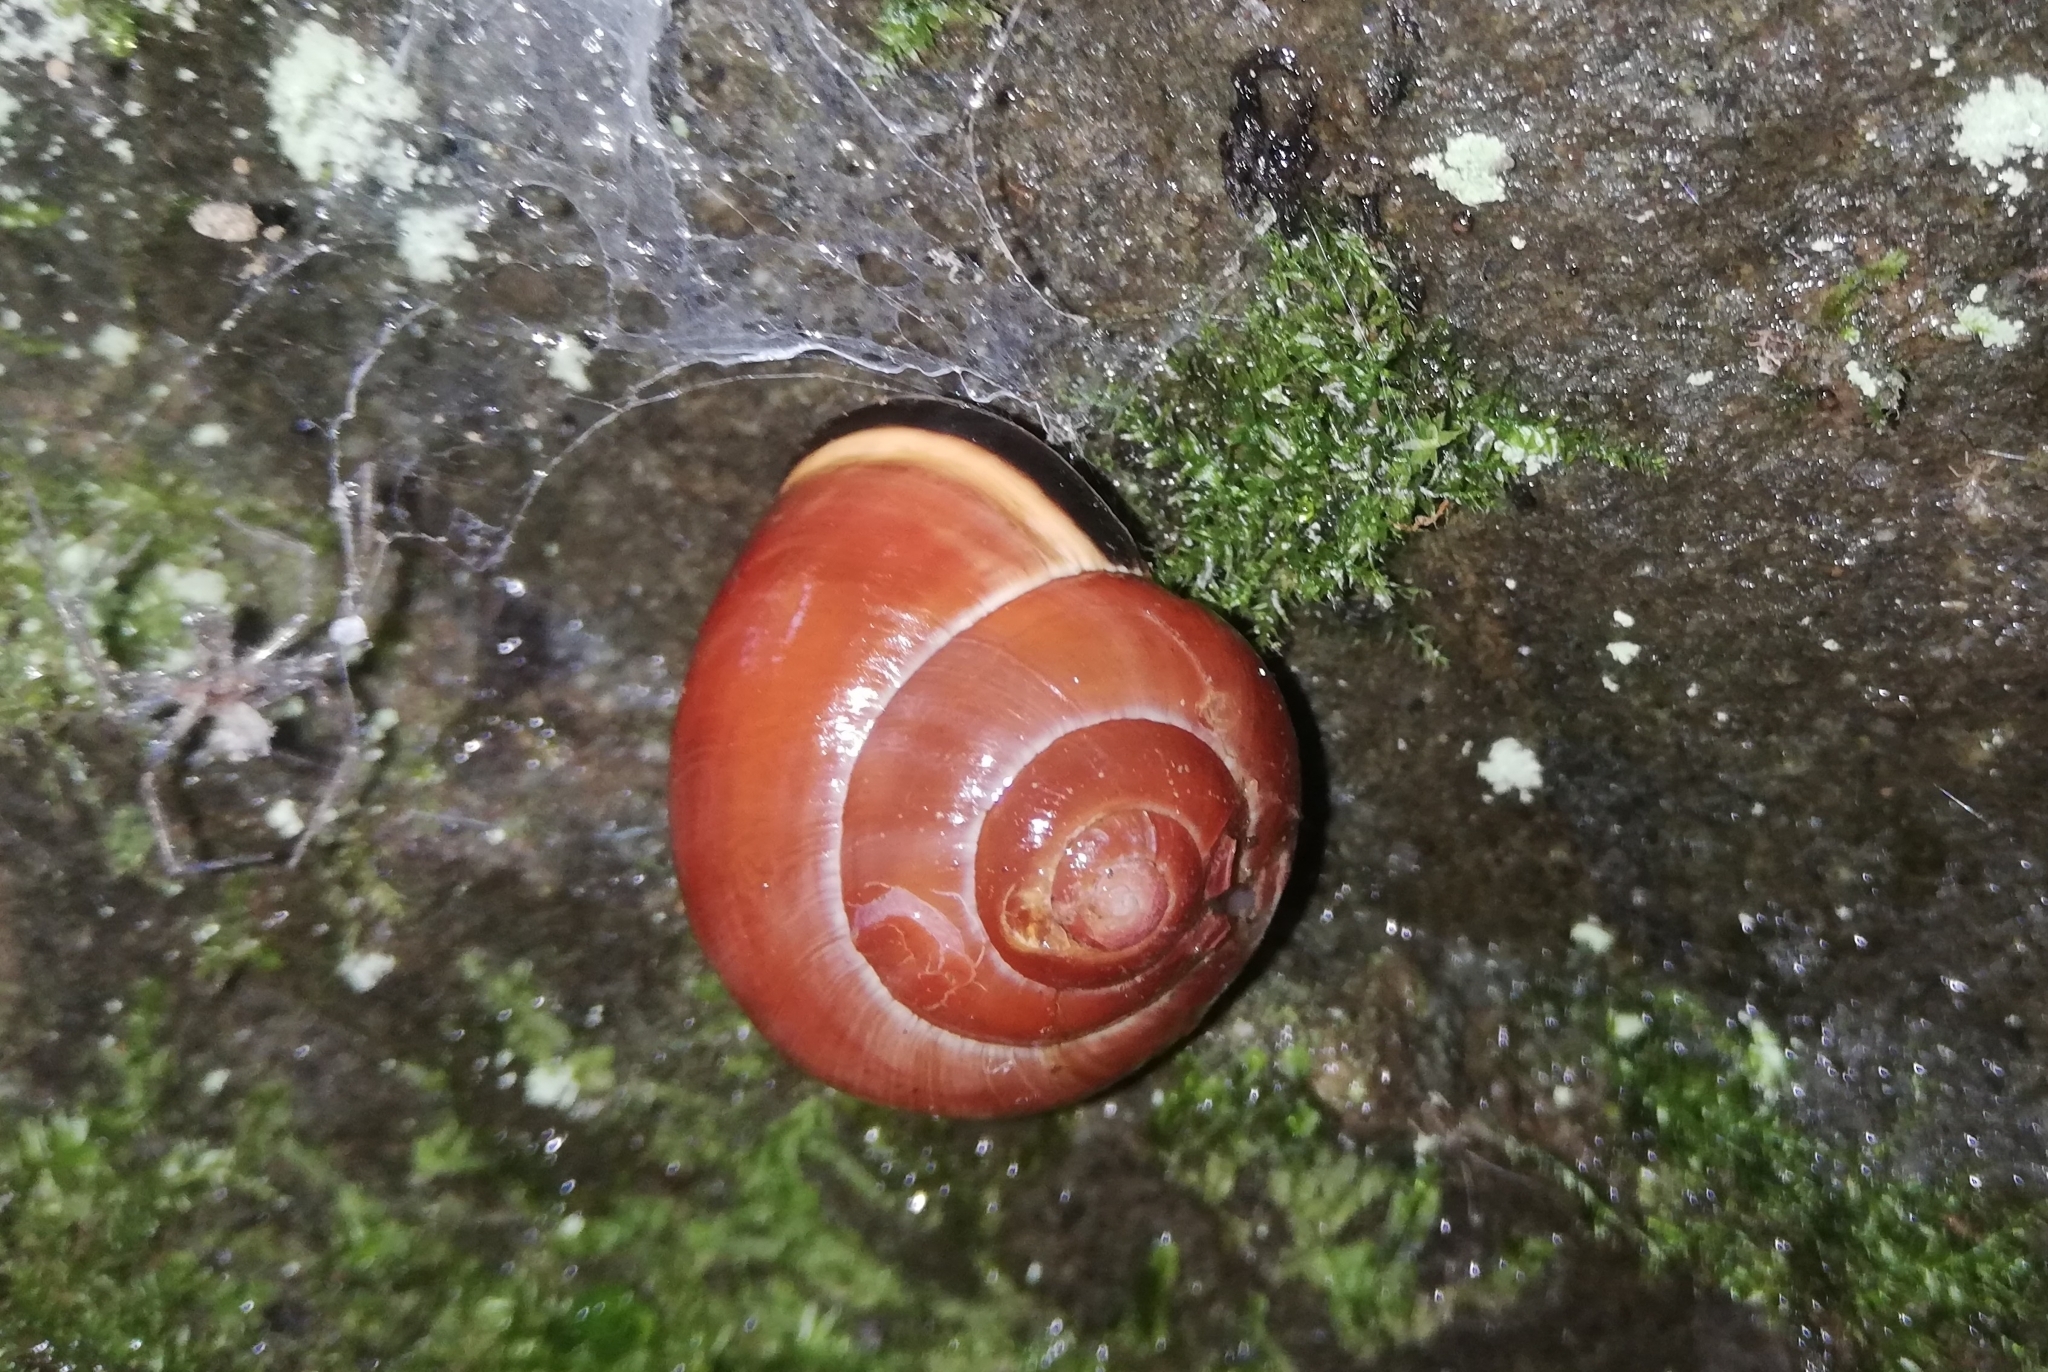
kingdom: Animalia
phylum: Mollusca
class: Gastropoda
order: Stylommatophora
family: Helicidae
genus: Cepaea
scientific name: Cepaea nemoralis
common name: Grovesnail
